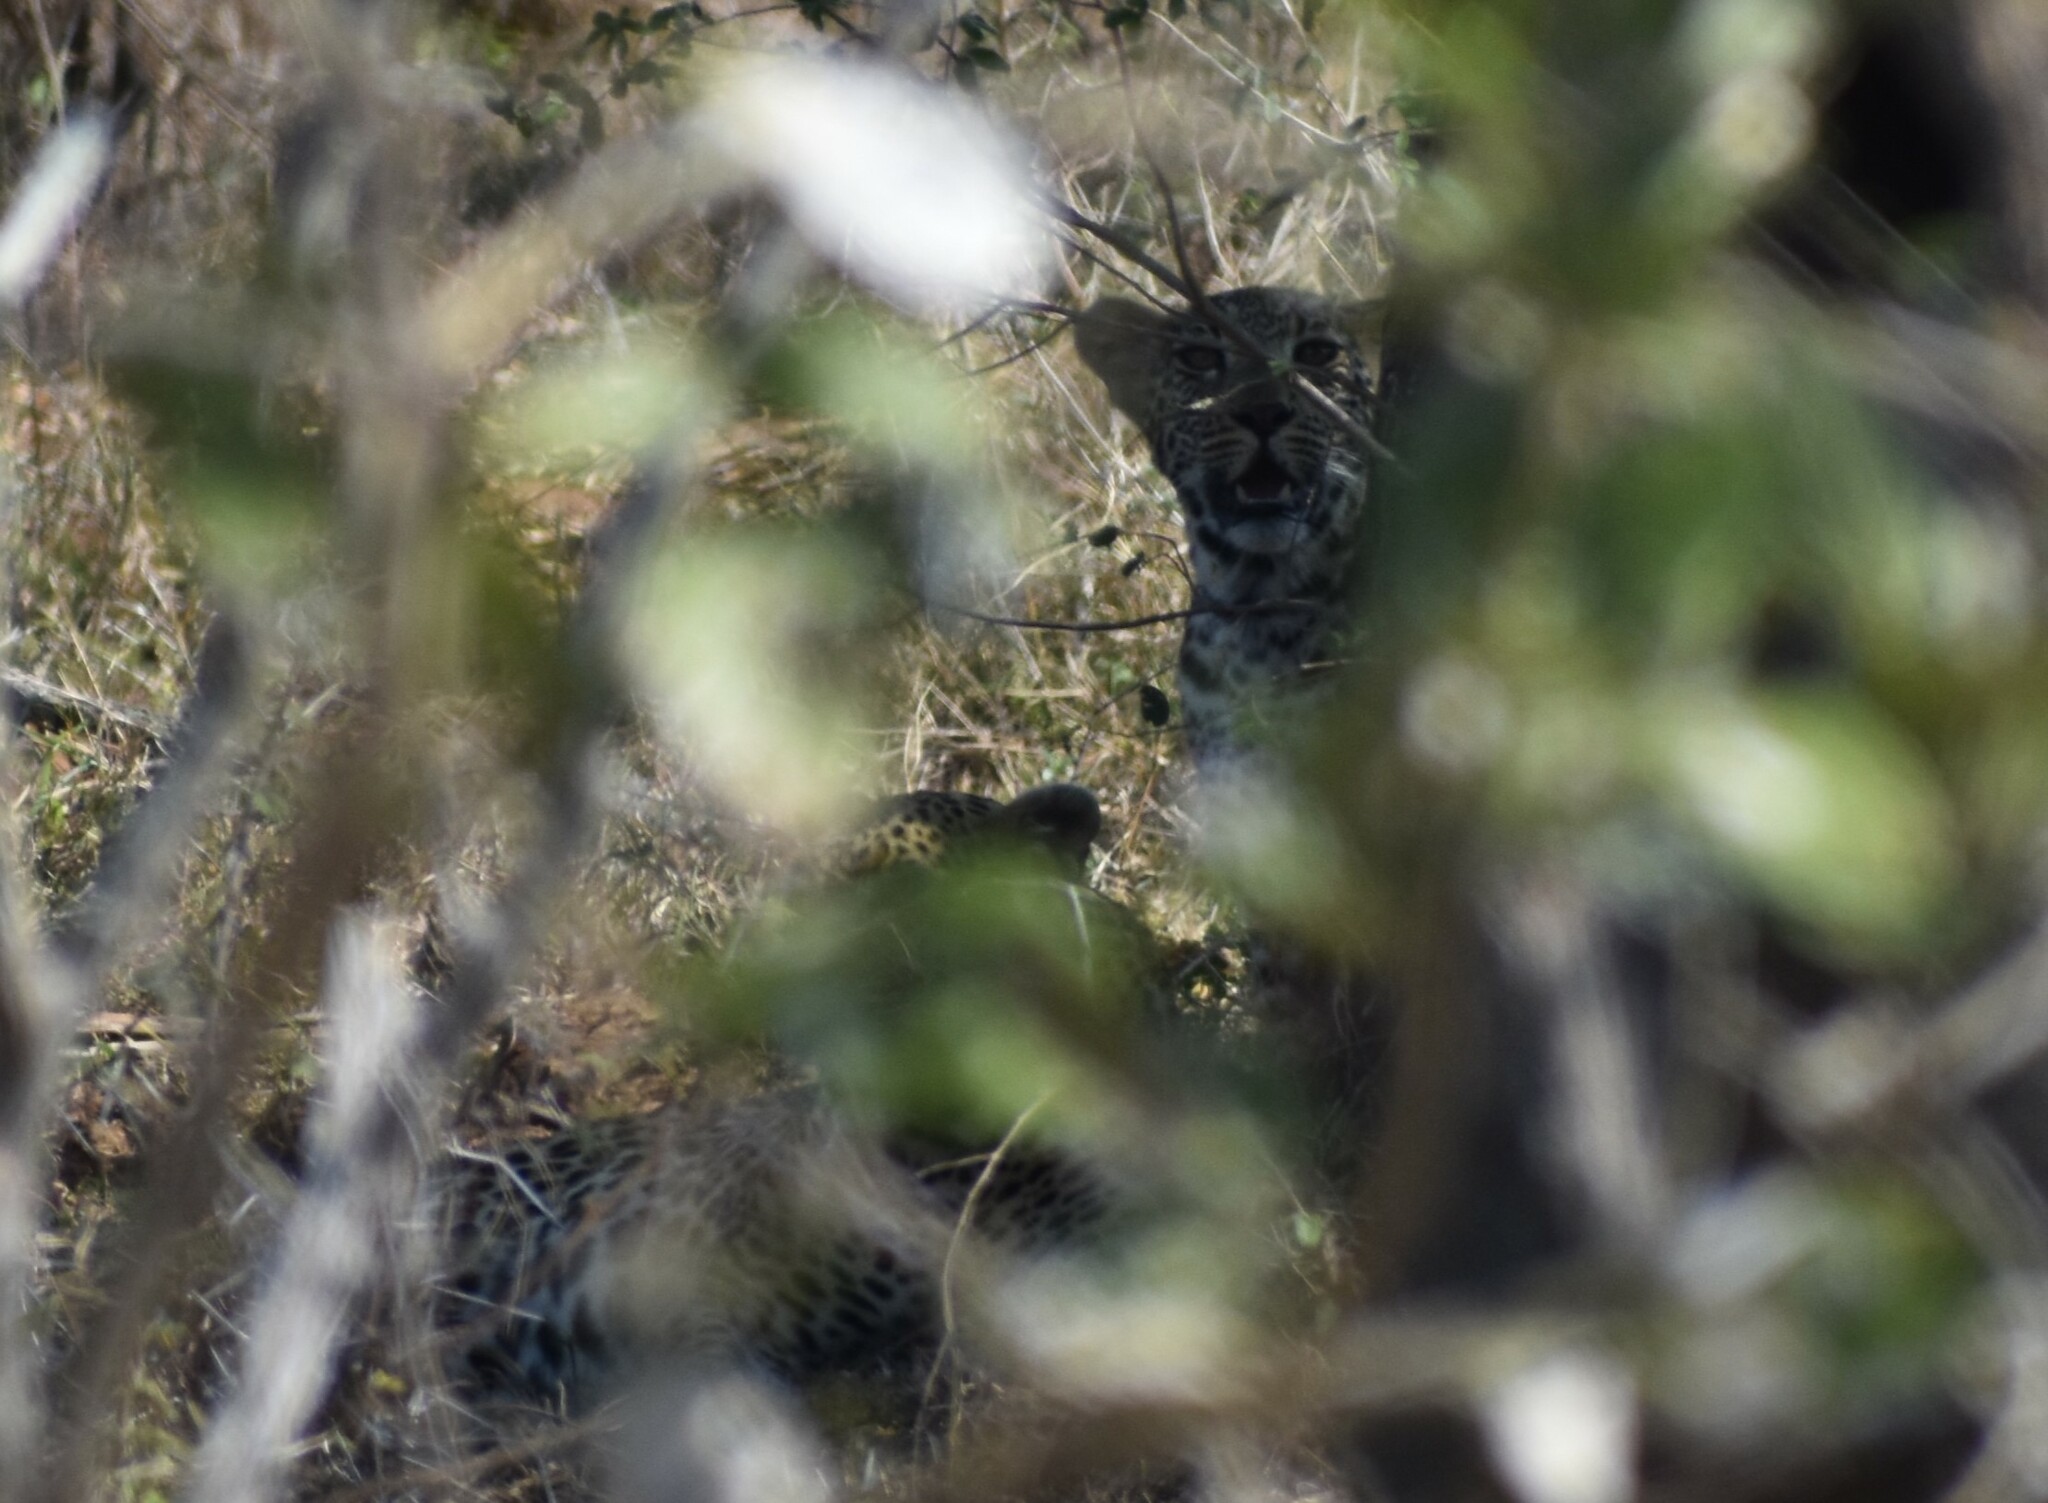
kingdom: Animalia
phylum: Chordata
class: Mammalia
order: Carnivora
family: Felidae
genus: Panthera
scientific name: Panthera pardus
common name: Leopard
